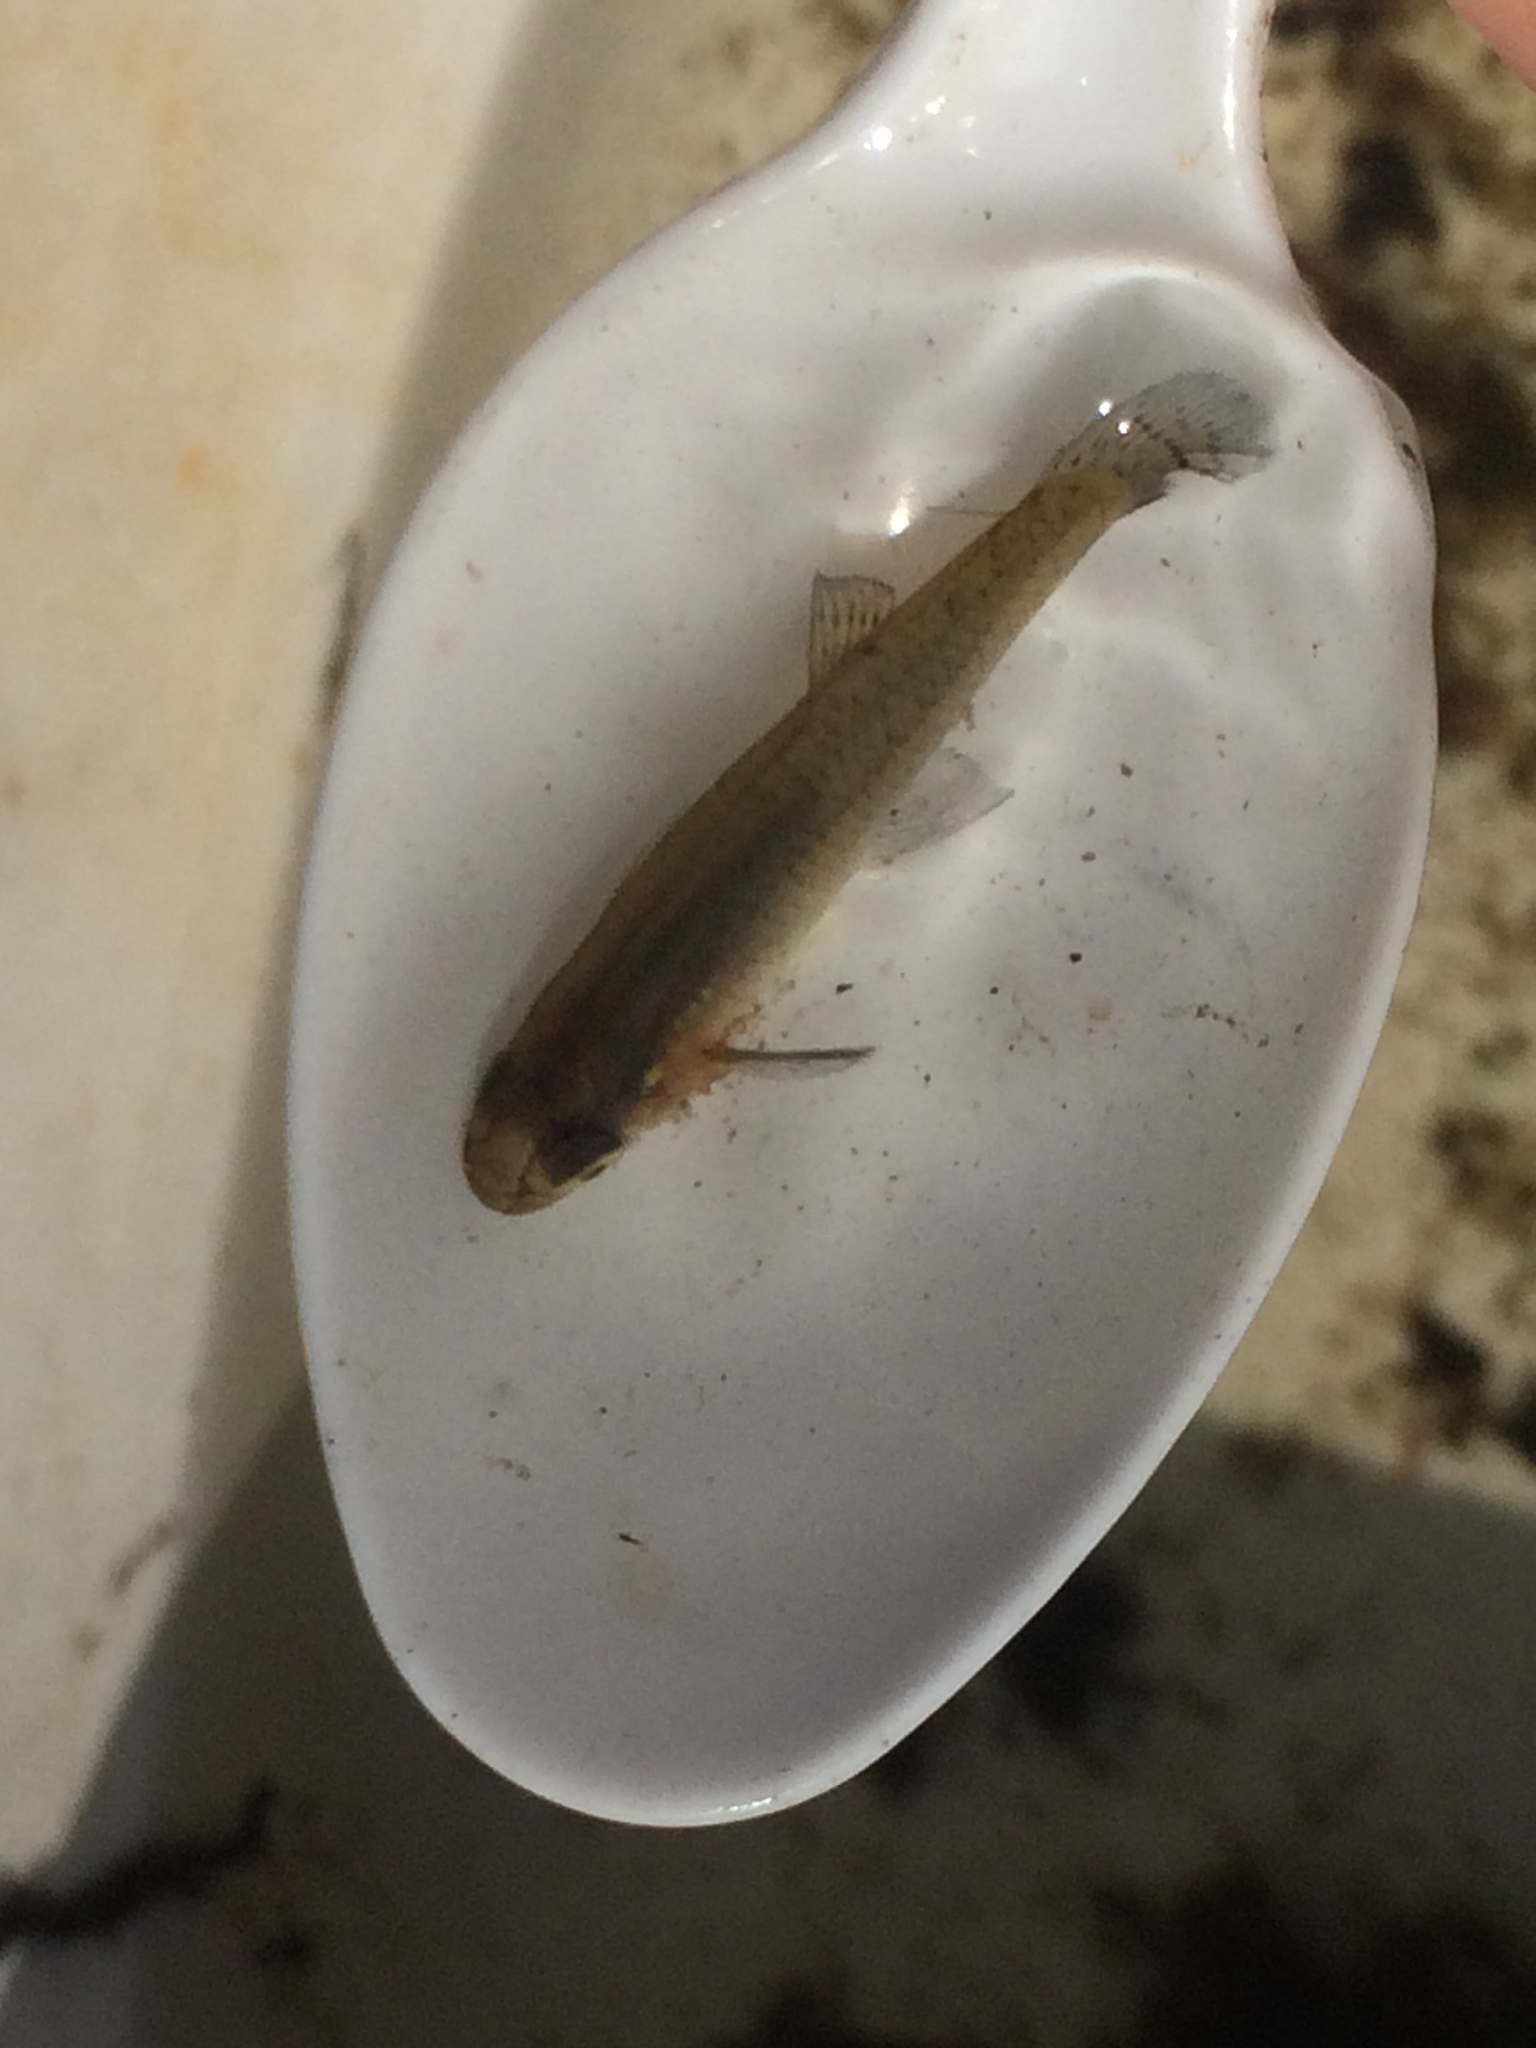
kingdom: Animalia
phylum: Chordata
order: Cyprinodontiformes
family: Poeciliidae
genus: Gambusia
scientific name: Gambusia holbrooki
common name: Eastern mosquitofish
